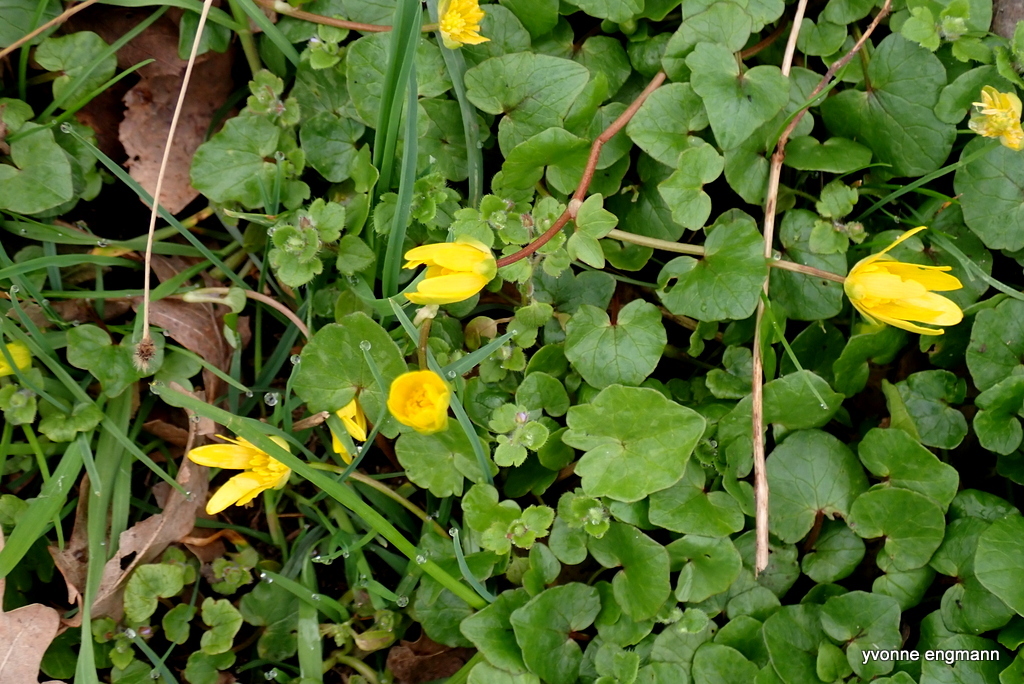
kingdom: Plantae
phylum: Tracheophyta
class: Magnoliopsida
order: Ranunculales
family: Ranunculaceae
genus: Ficaria
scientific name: Ficaria verna
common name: Lesser celandine
